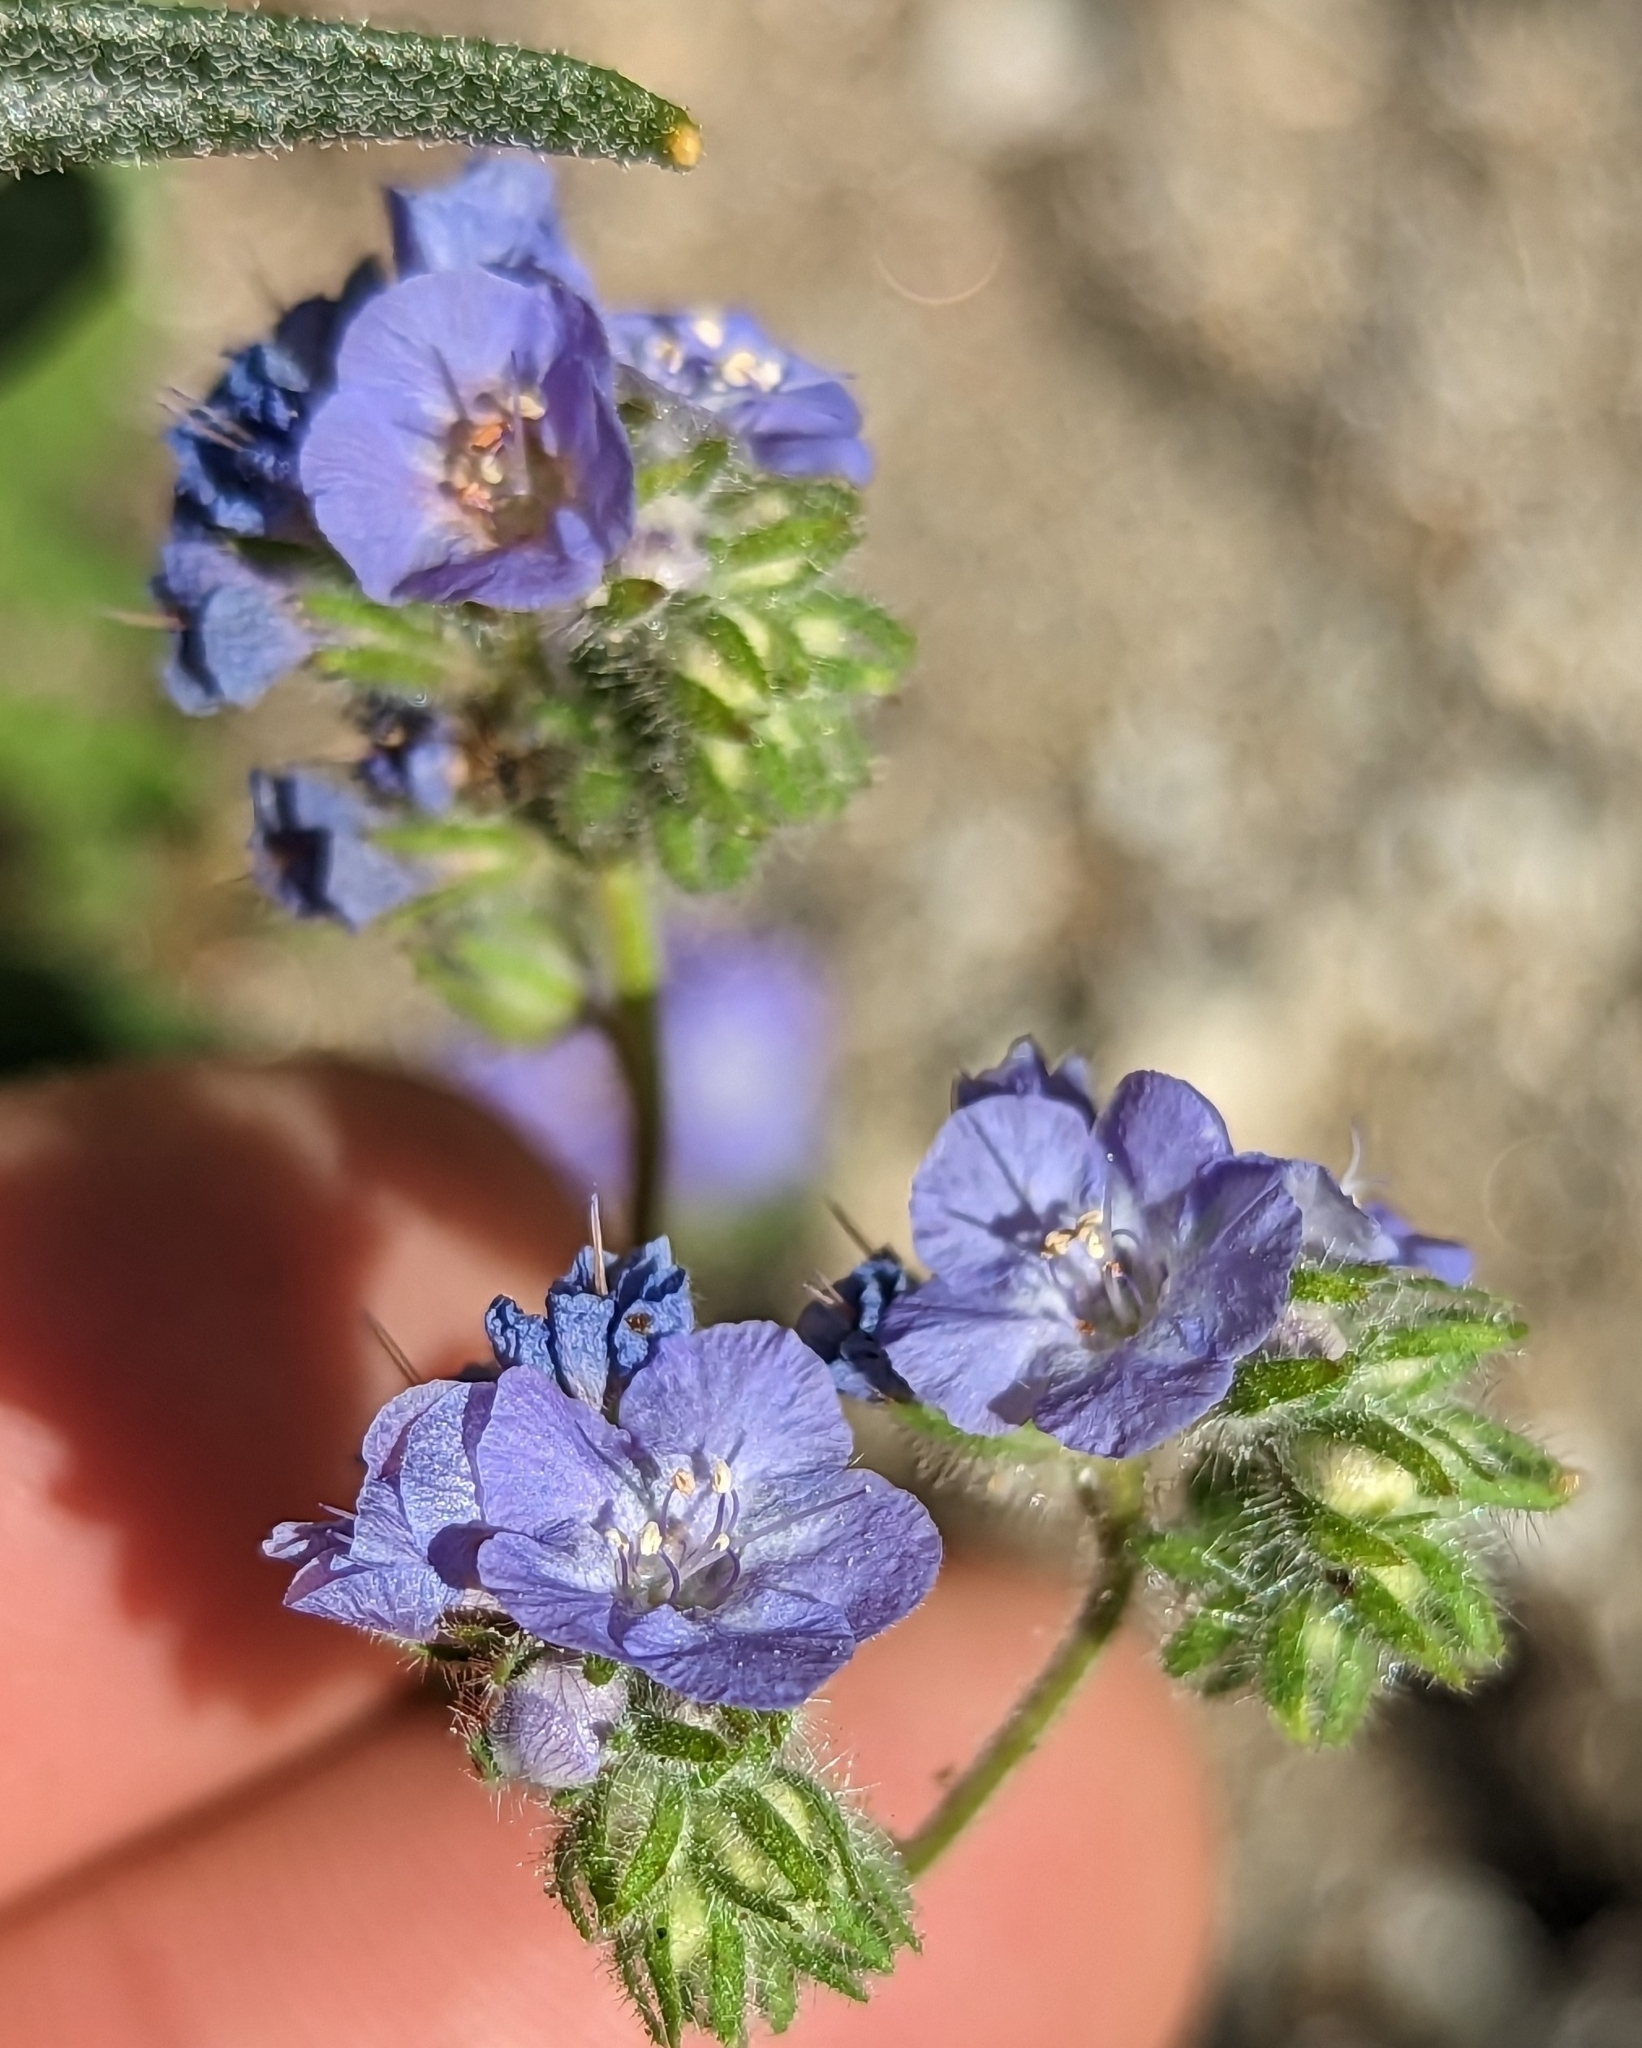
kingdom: Plantae
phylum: Tracheophyta
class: Magnoliopsida
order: Boraginales
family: Hydrophyllaceae
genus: Phacelia
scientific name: Phacelia distans
